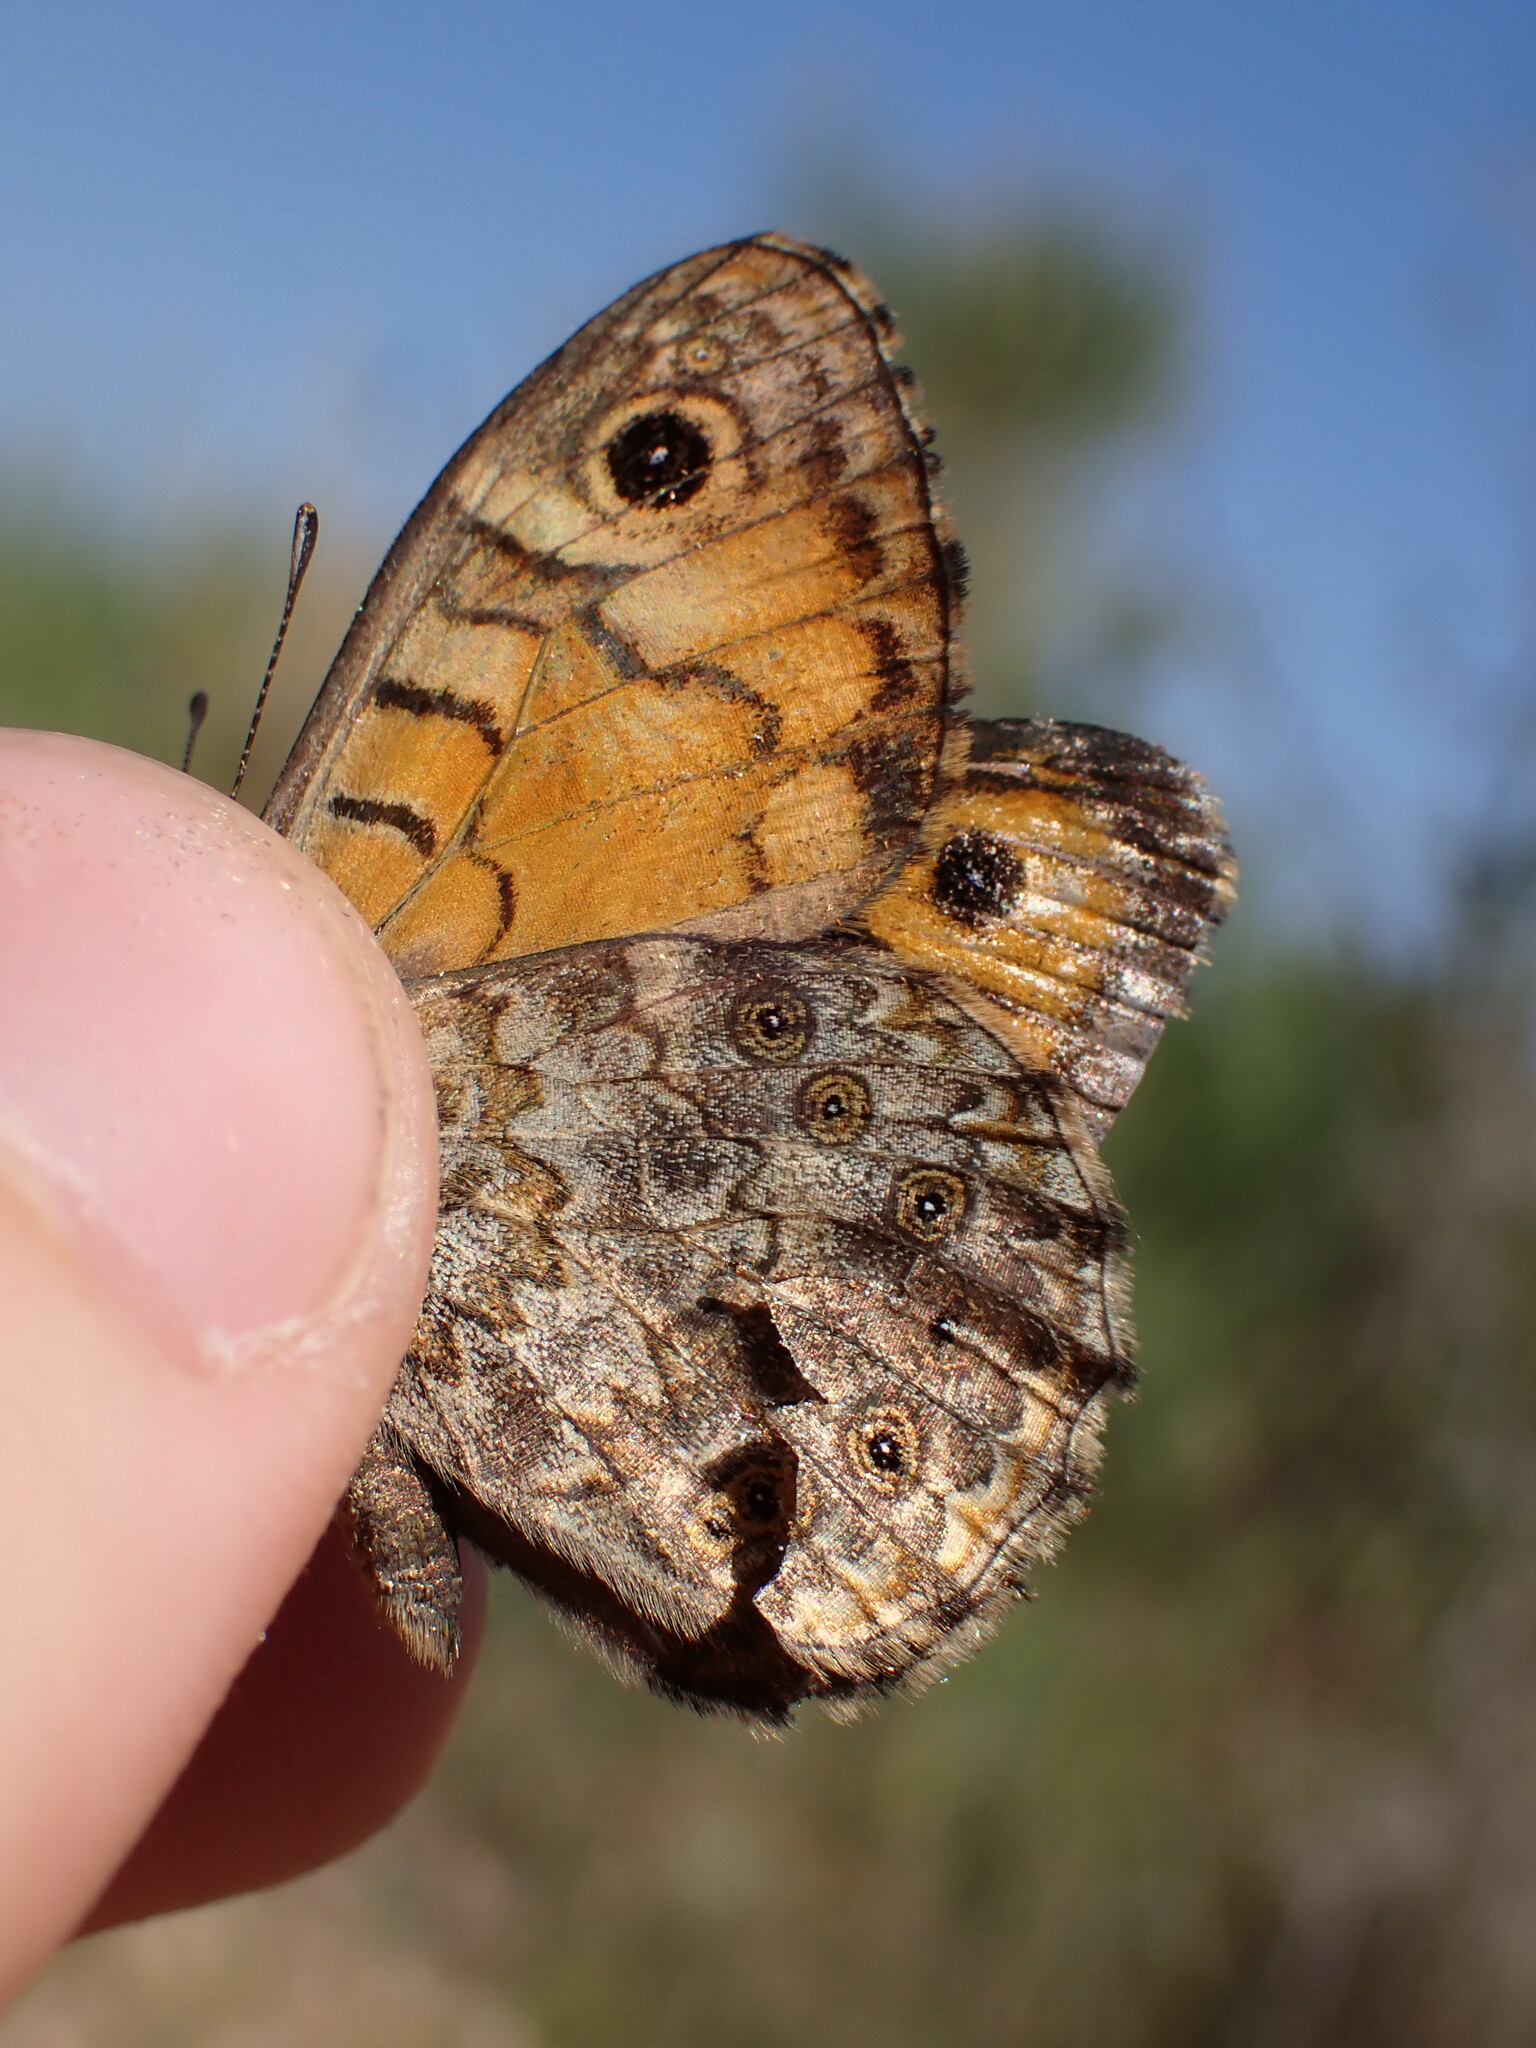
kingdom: Animalia
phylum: Arthropoda
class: Insecta
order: Lepidoptera
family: Nymphalidae
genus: Pararge
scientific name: Pararge Lasiommata megera
